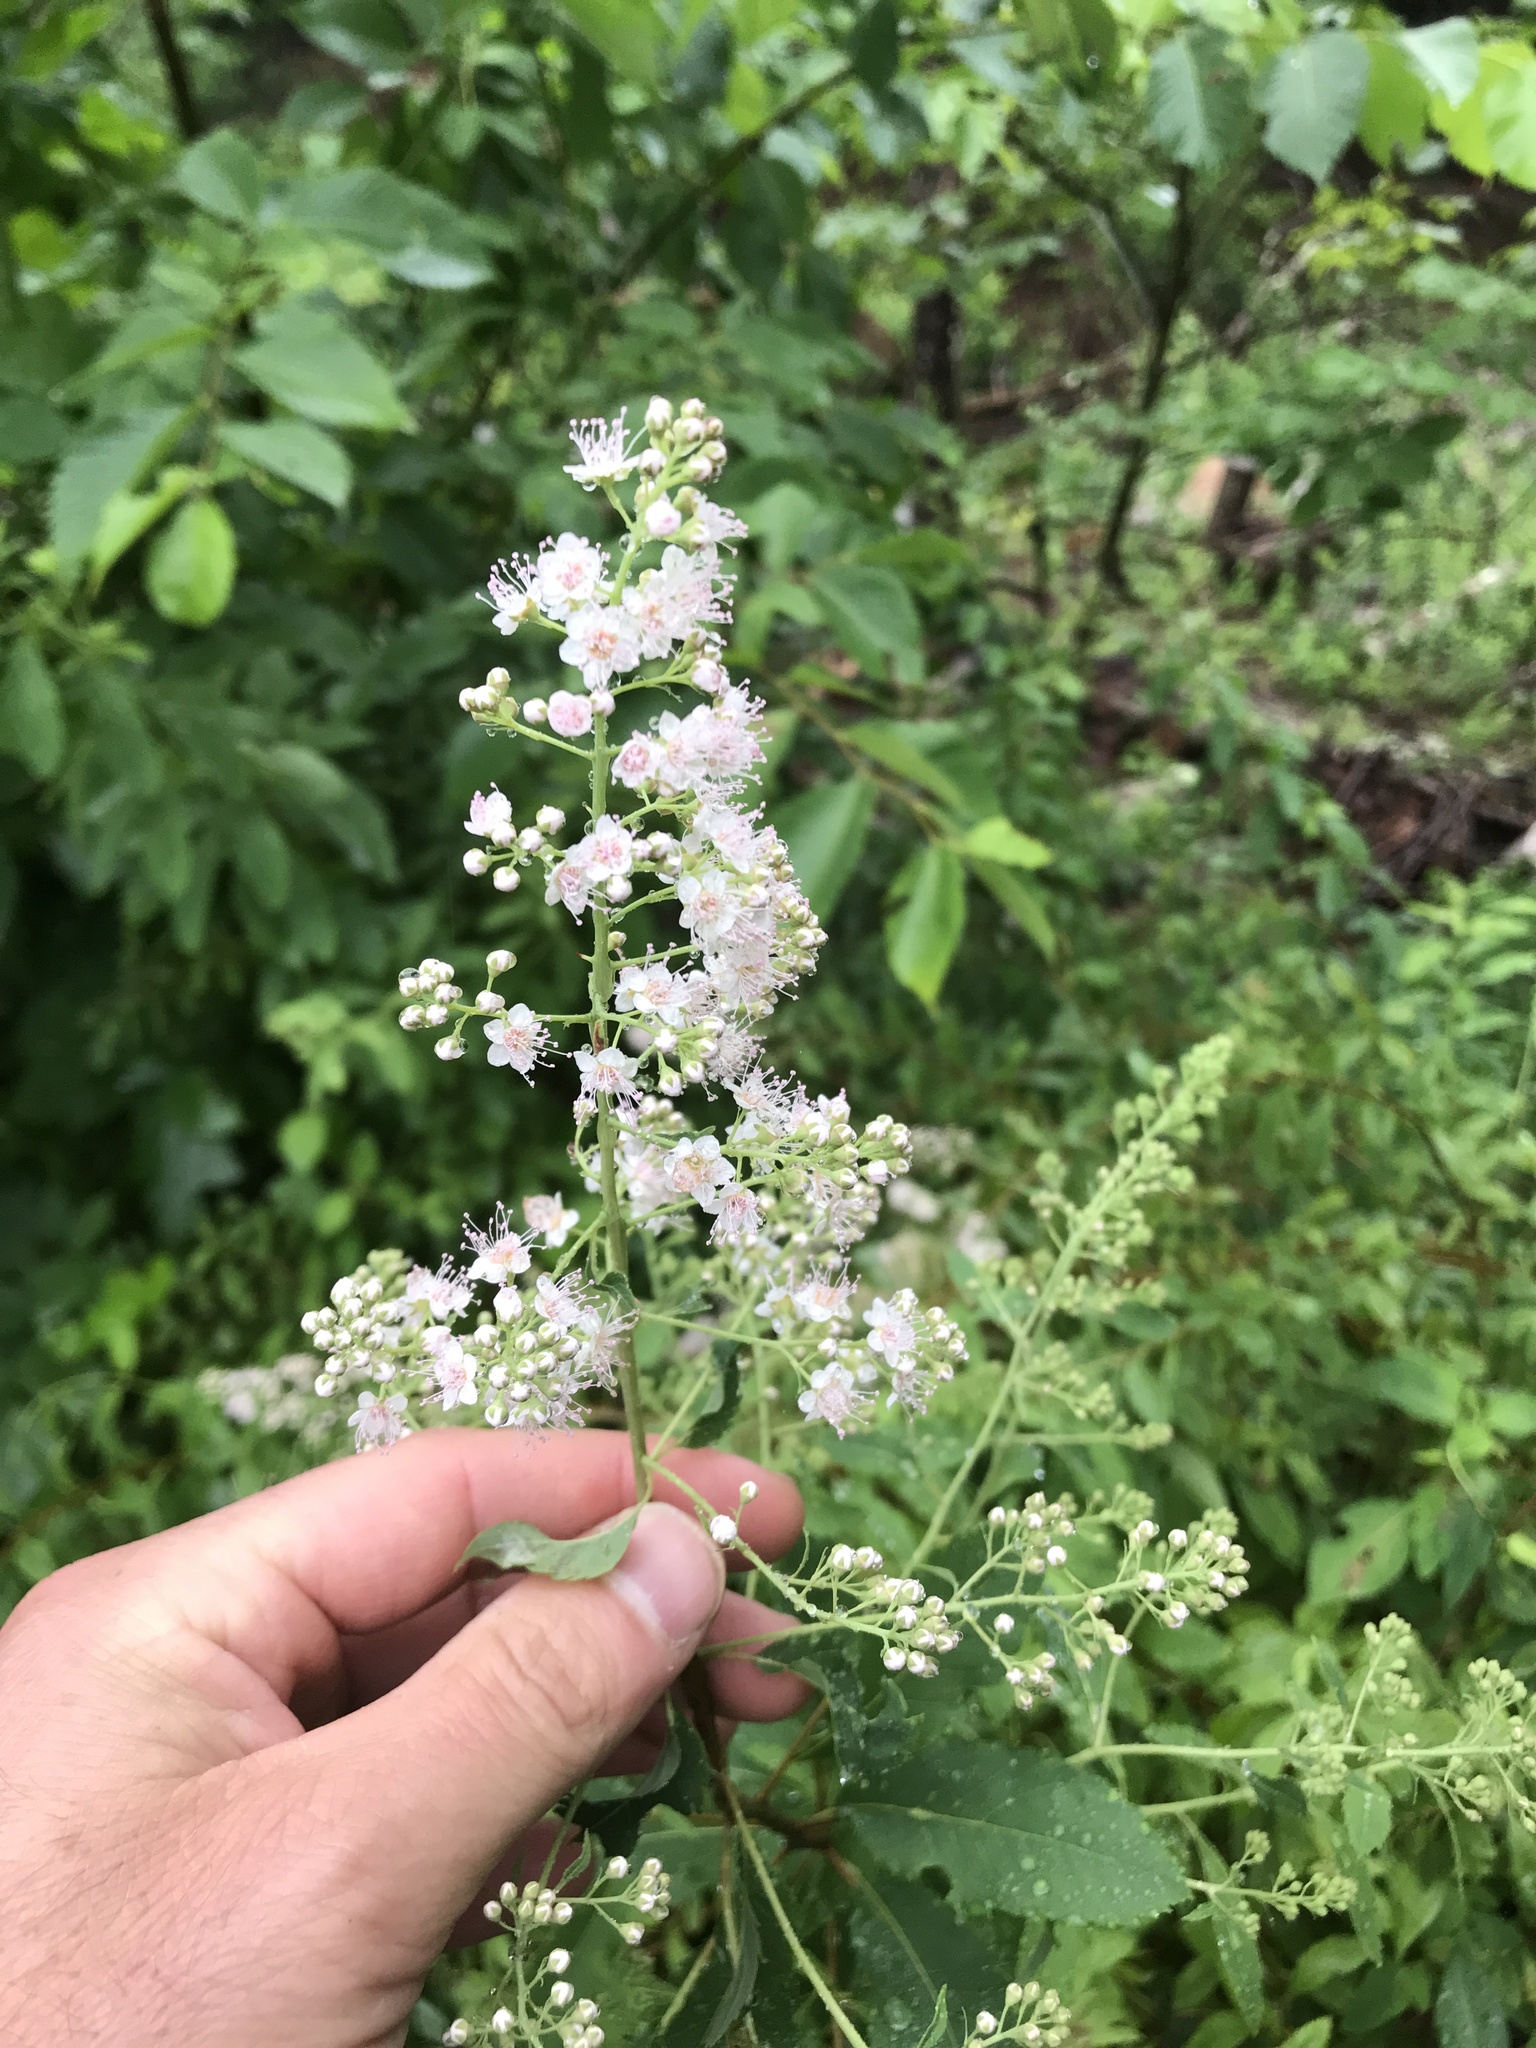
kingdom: Plantae
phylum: Tracheophyta
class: Magnoliopsida
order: Rosales
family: Rosaceae
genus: Spiraea
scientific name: Spiraea alba
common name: Pale bridewort
